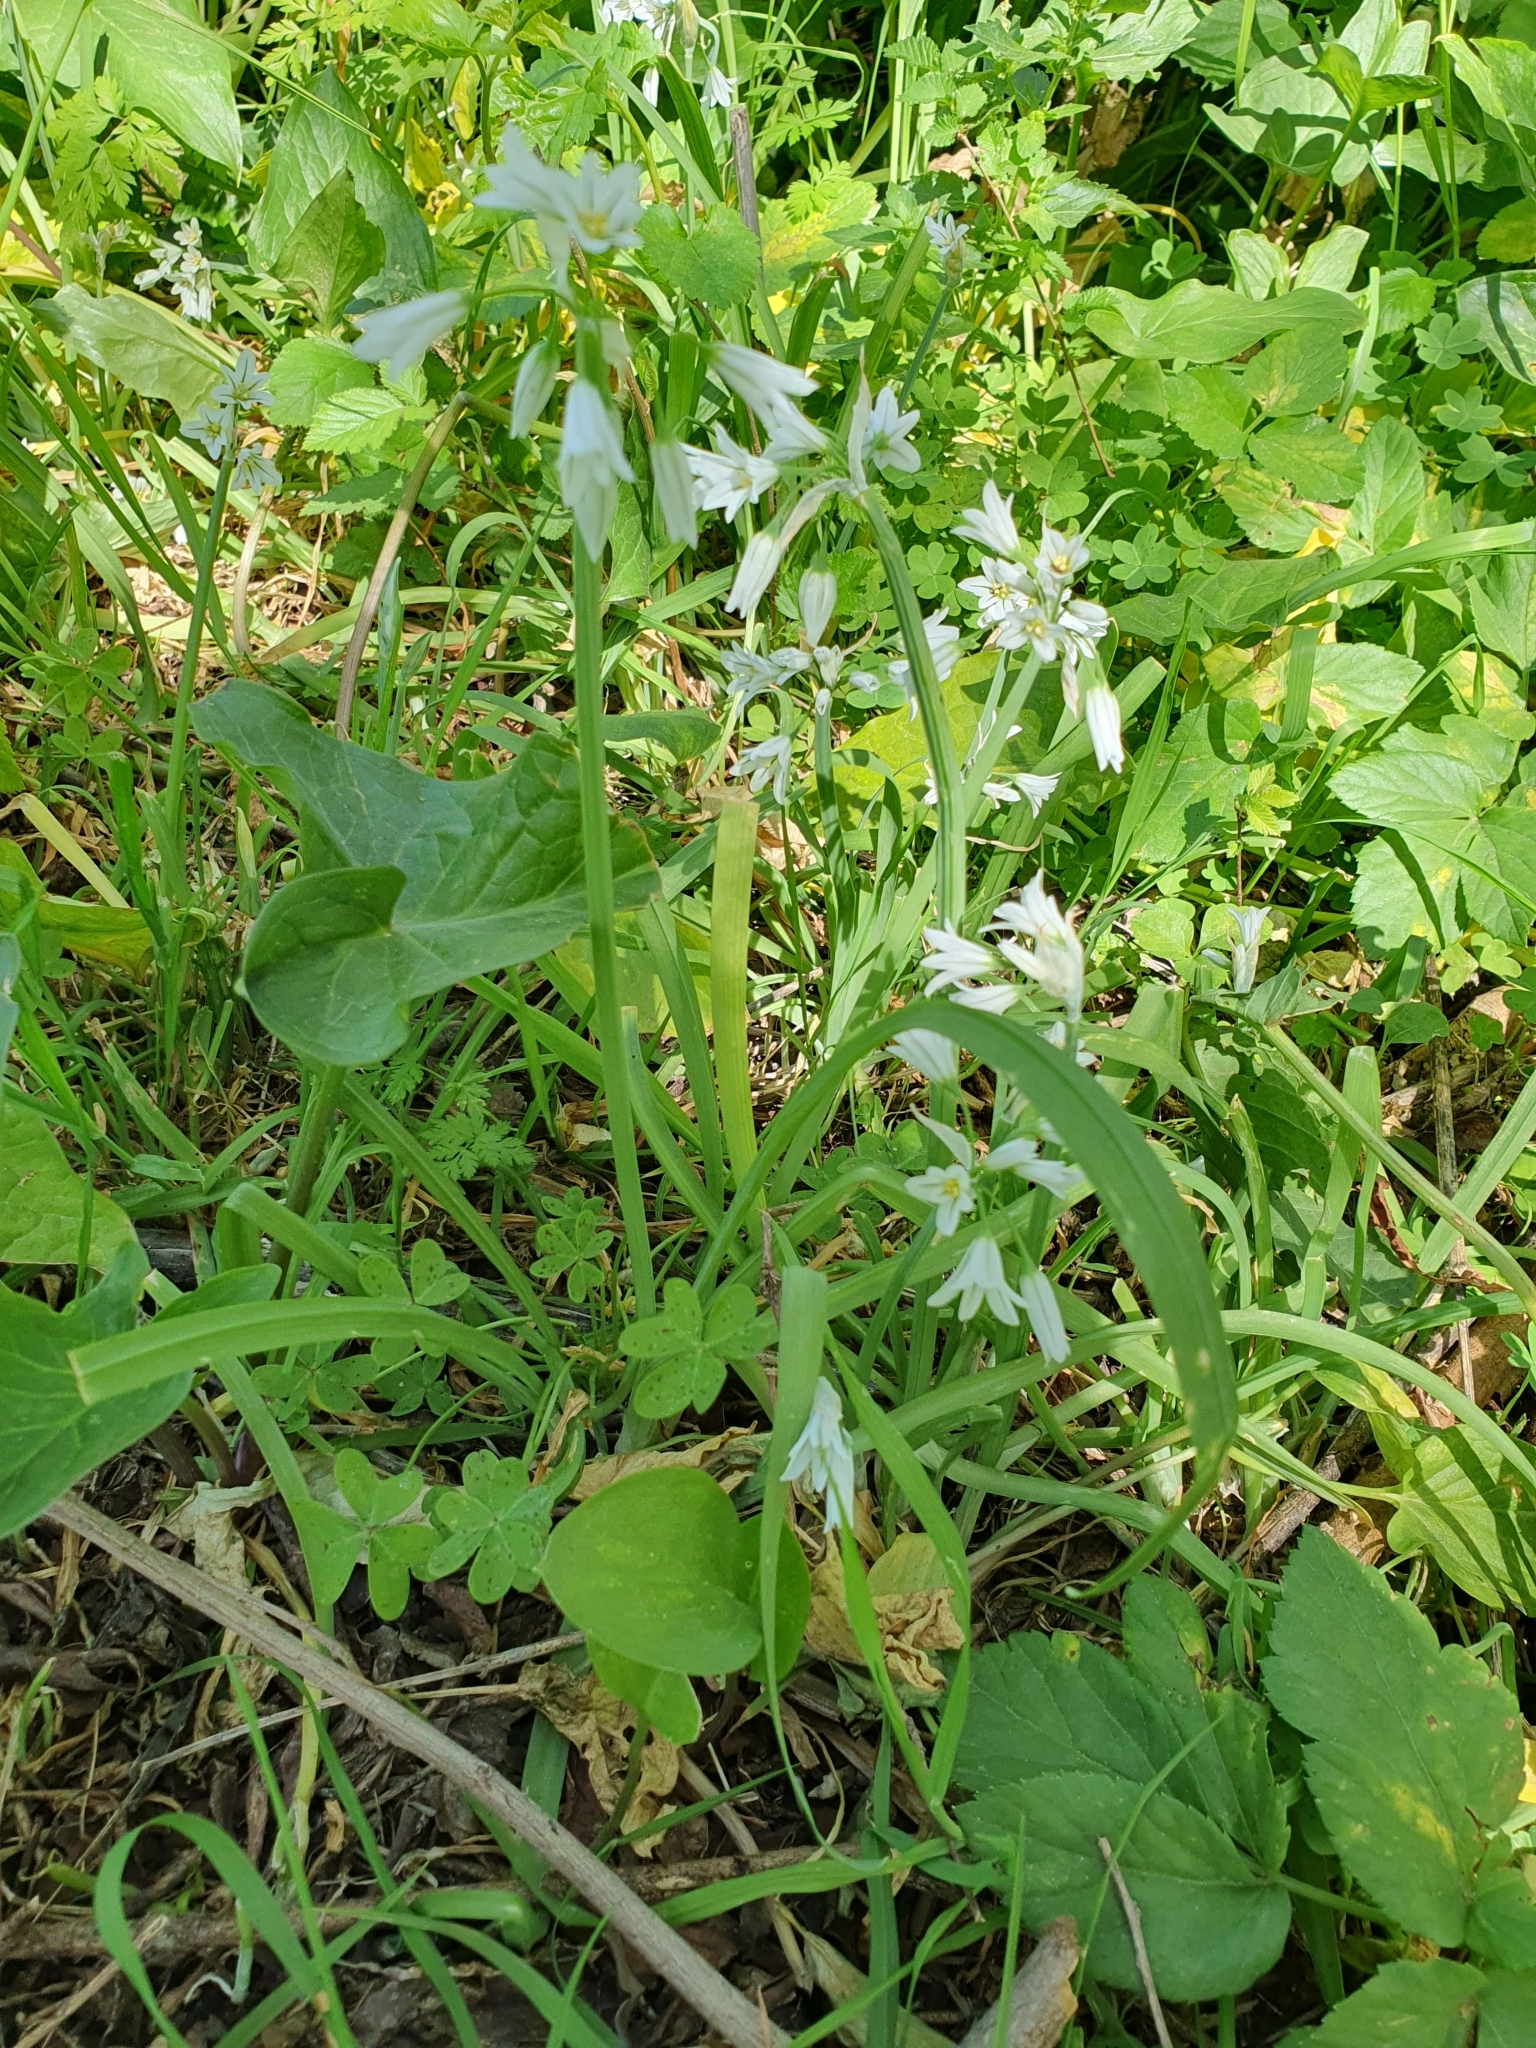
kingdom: Plantae
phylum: Tracheophyta
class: Liliopsida
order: Asparagales
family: Amaryllidaceae
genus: Allium
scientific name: Allium triquetrum
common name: Three-cornered garlic
